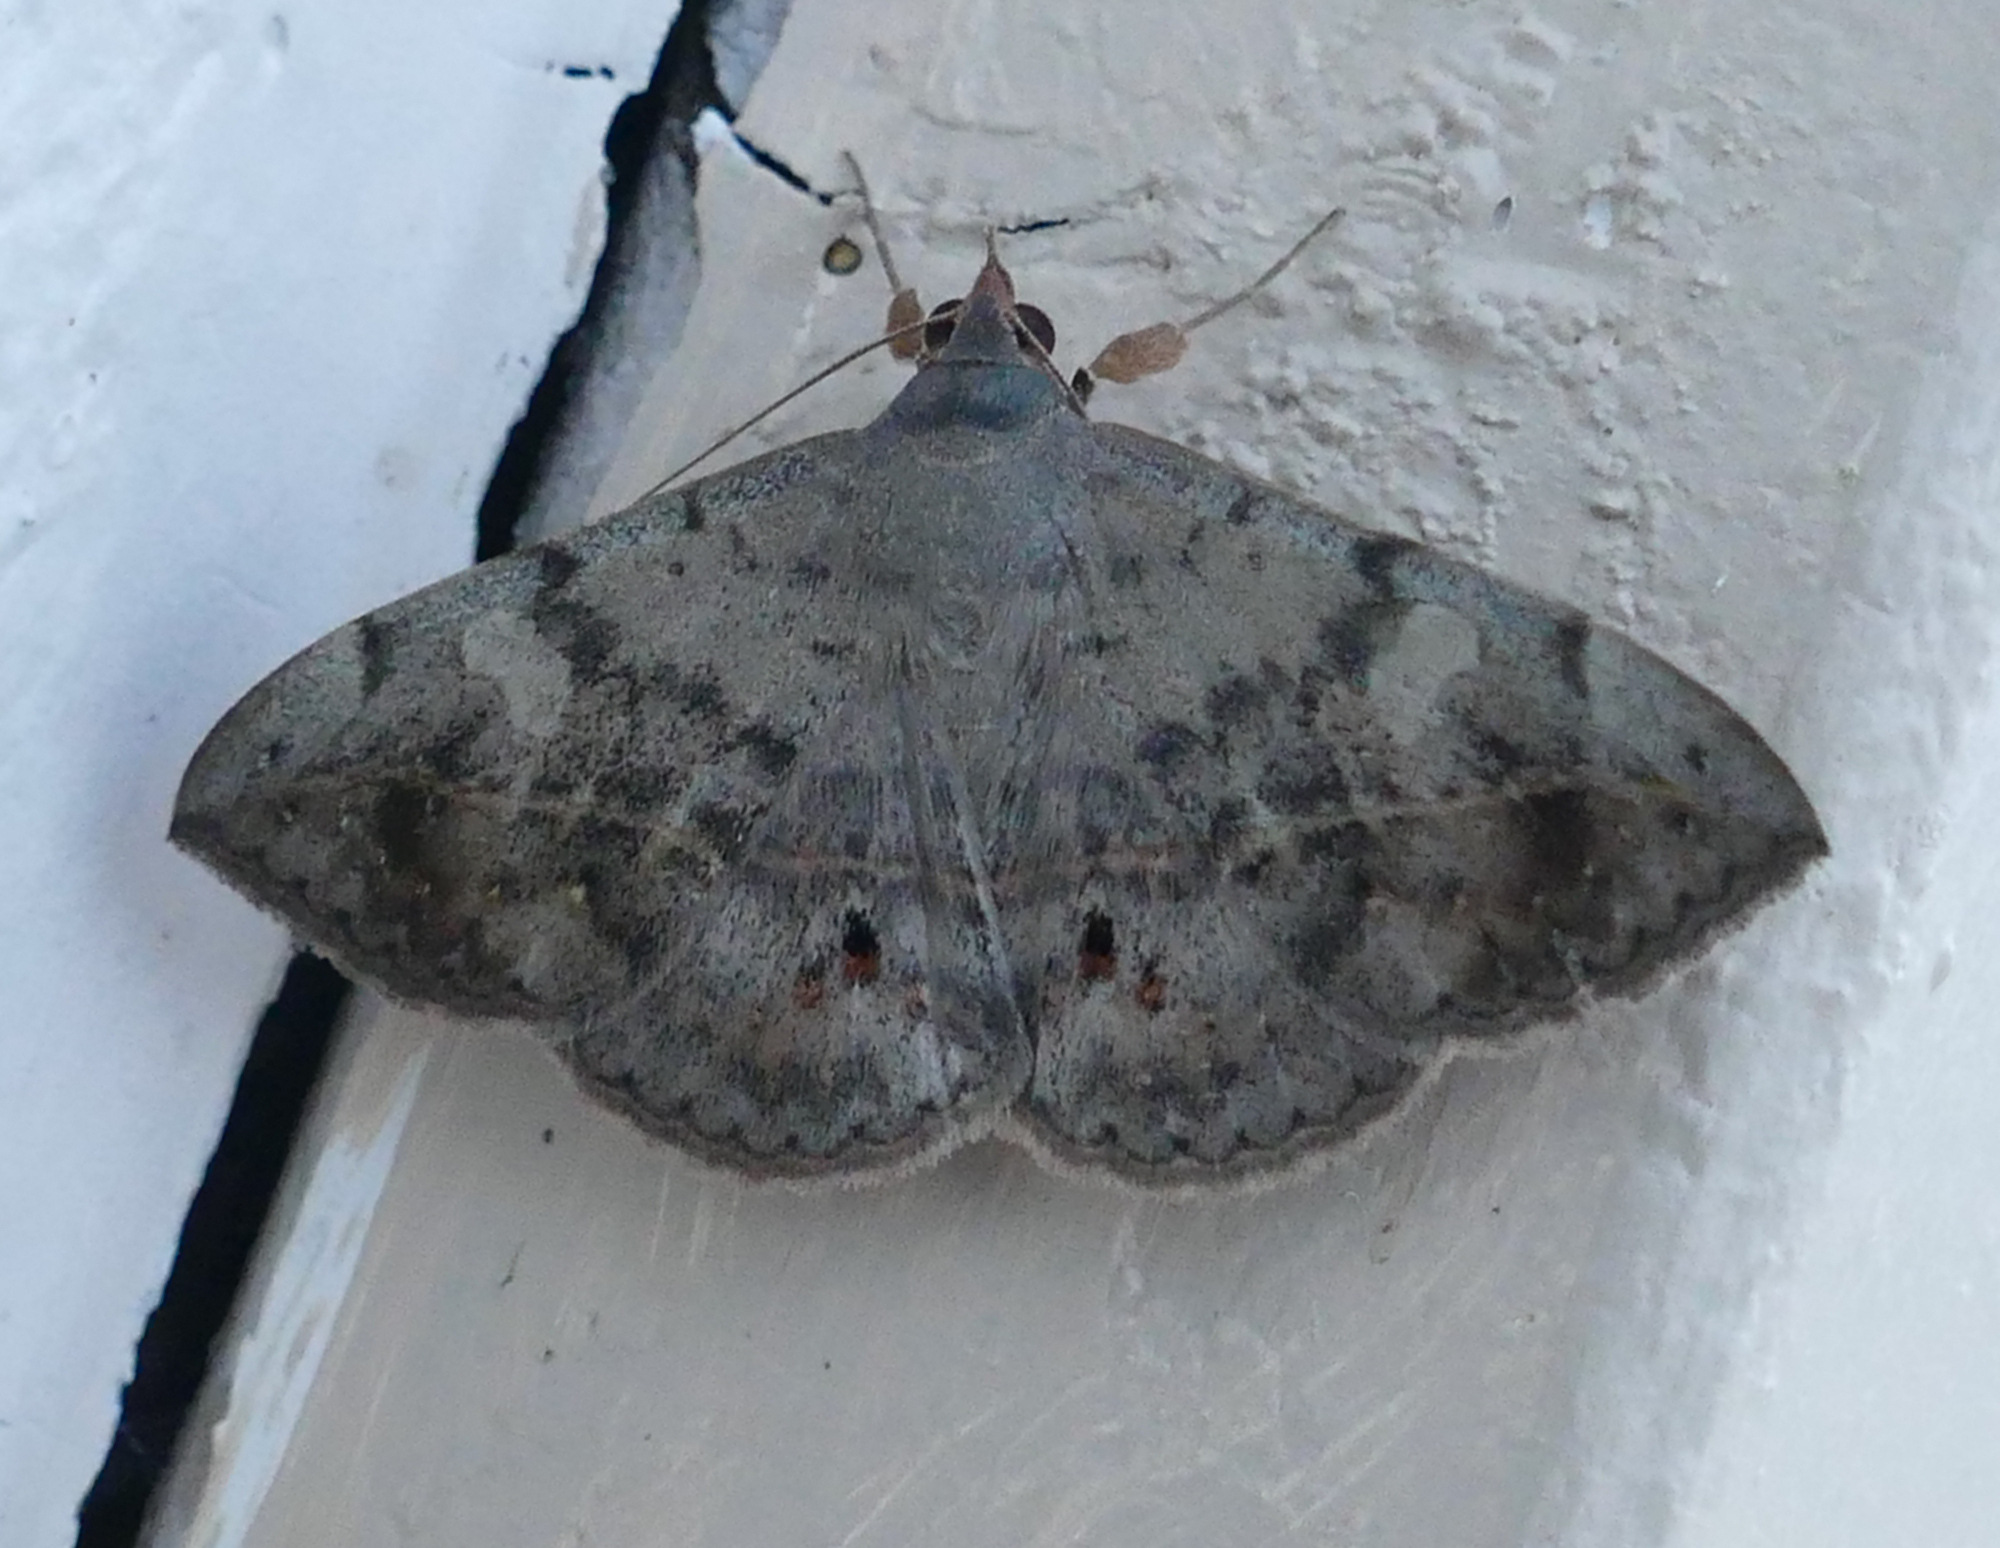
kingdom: Animalia
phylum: Arthropoda
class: Insecta
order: Lepidoptera
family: Erebidae
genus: Anticarsia
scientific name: Anticarsia gemmatalis
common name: Cutworm moth
